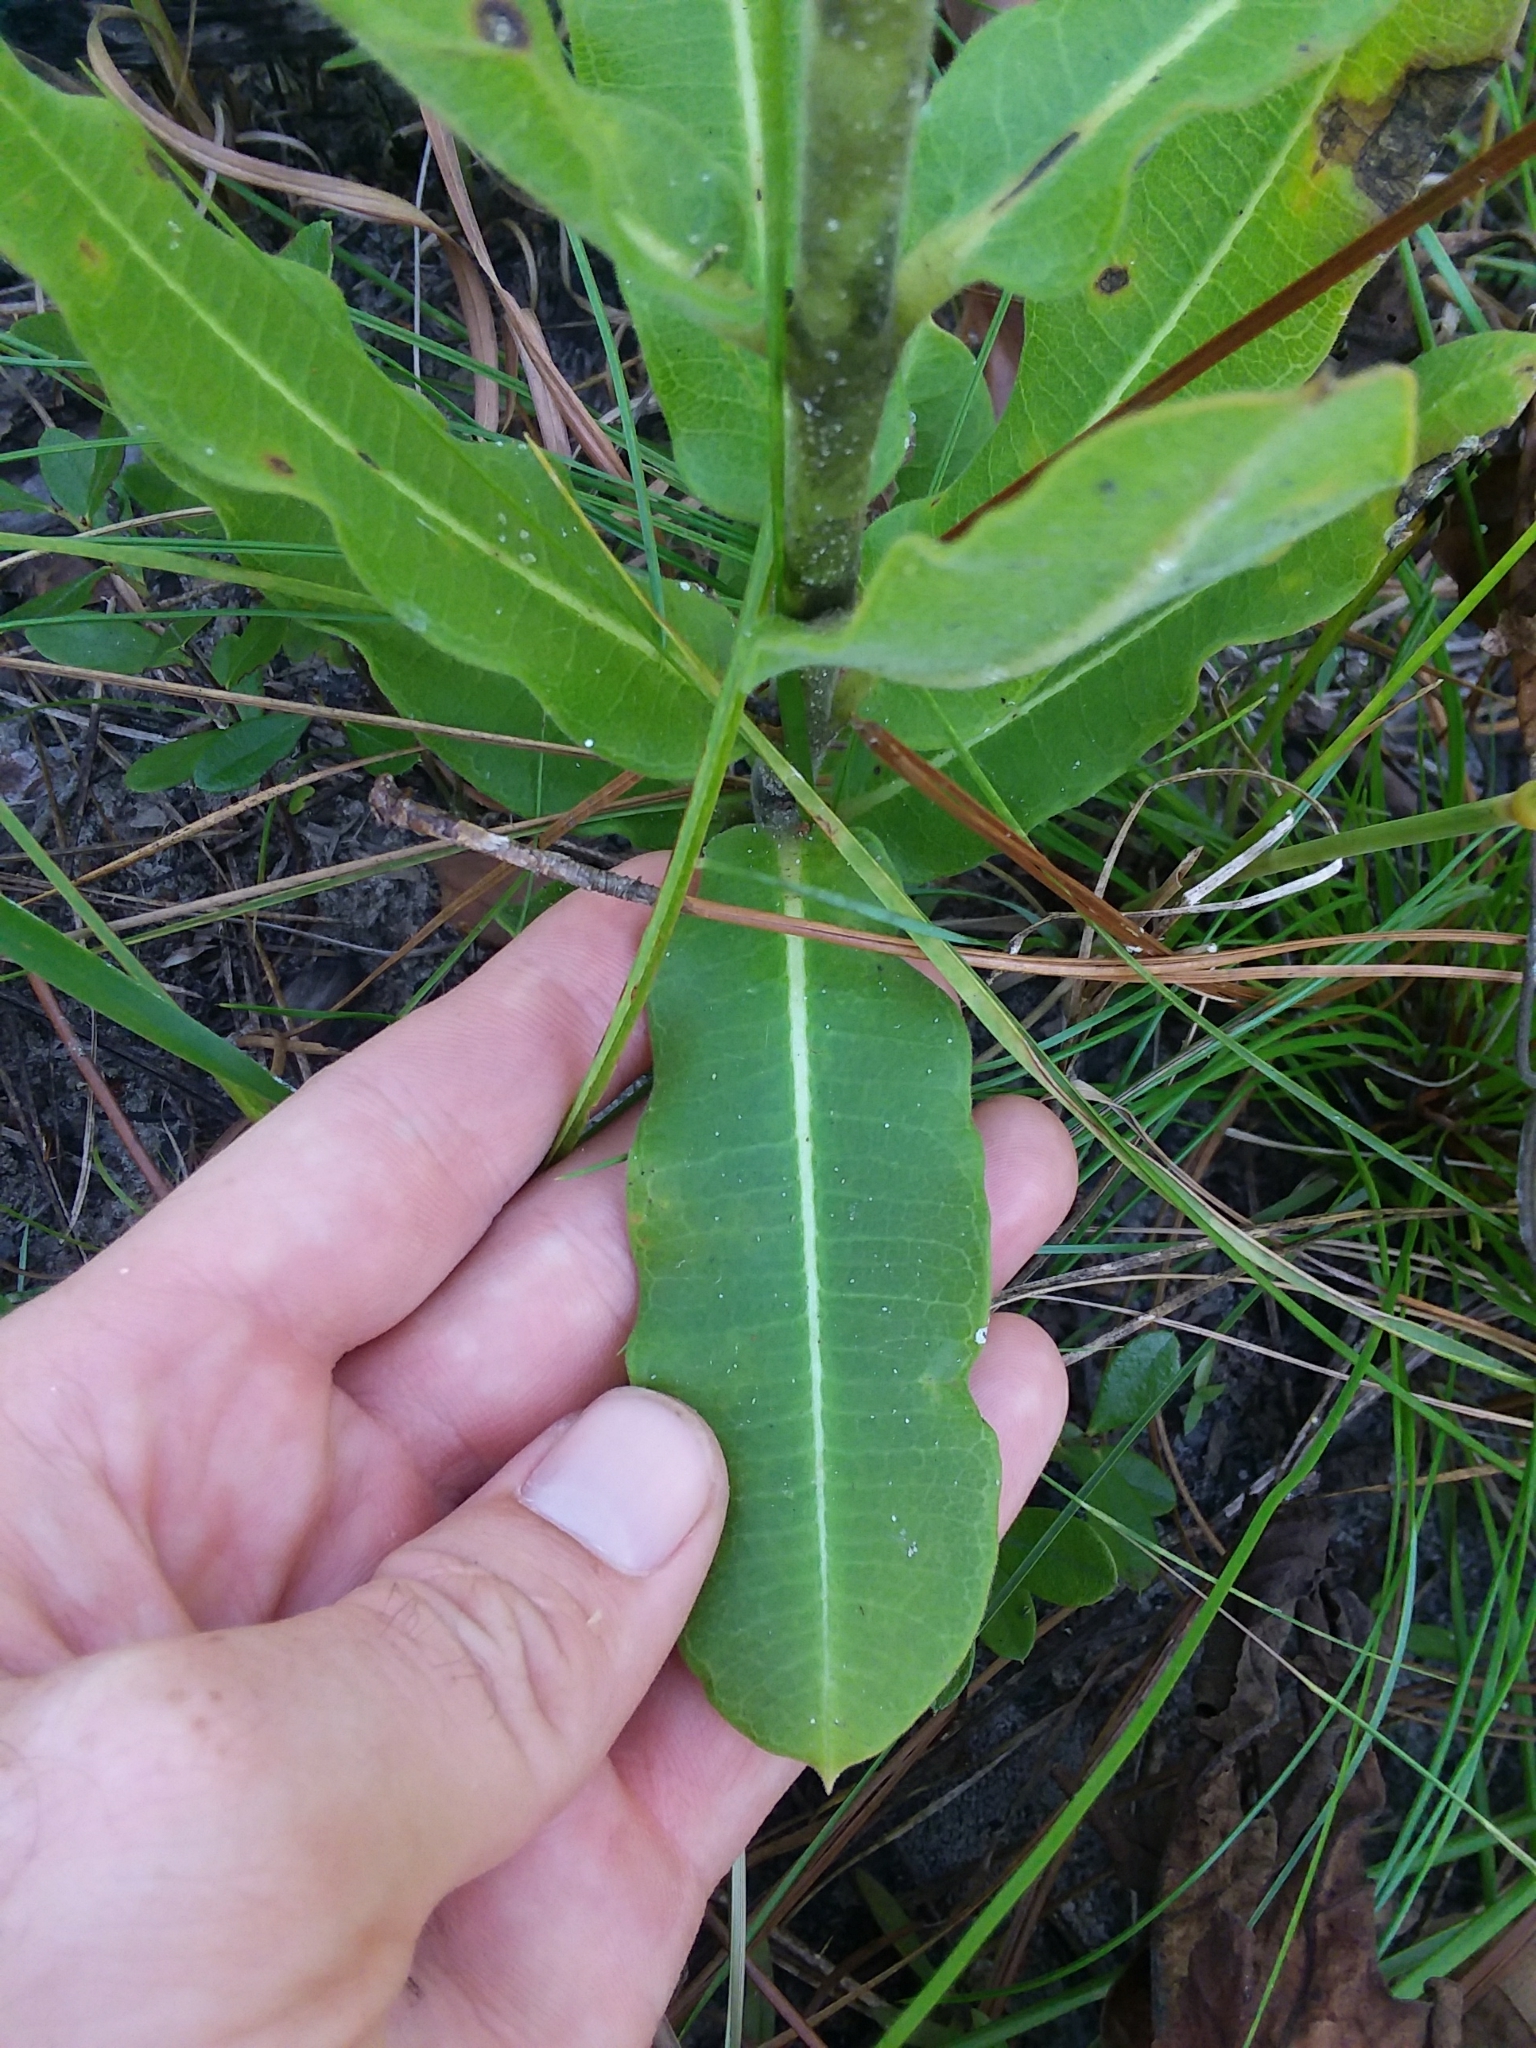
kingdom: Plantae
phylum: Tracheophyta
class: Magnoliopsida
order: Gentianales
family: Apocynaceae
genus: Asclepias
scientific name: Asclepias obovata
